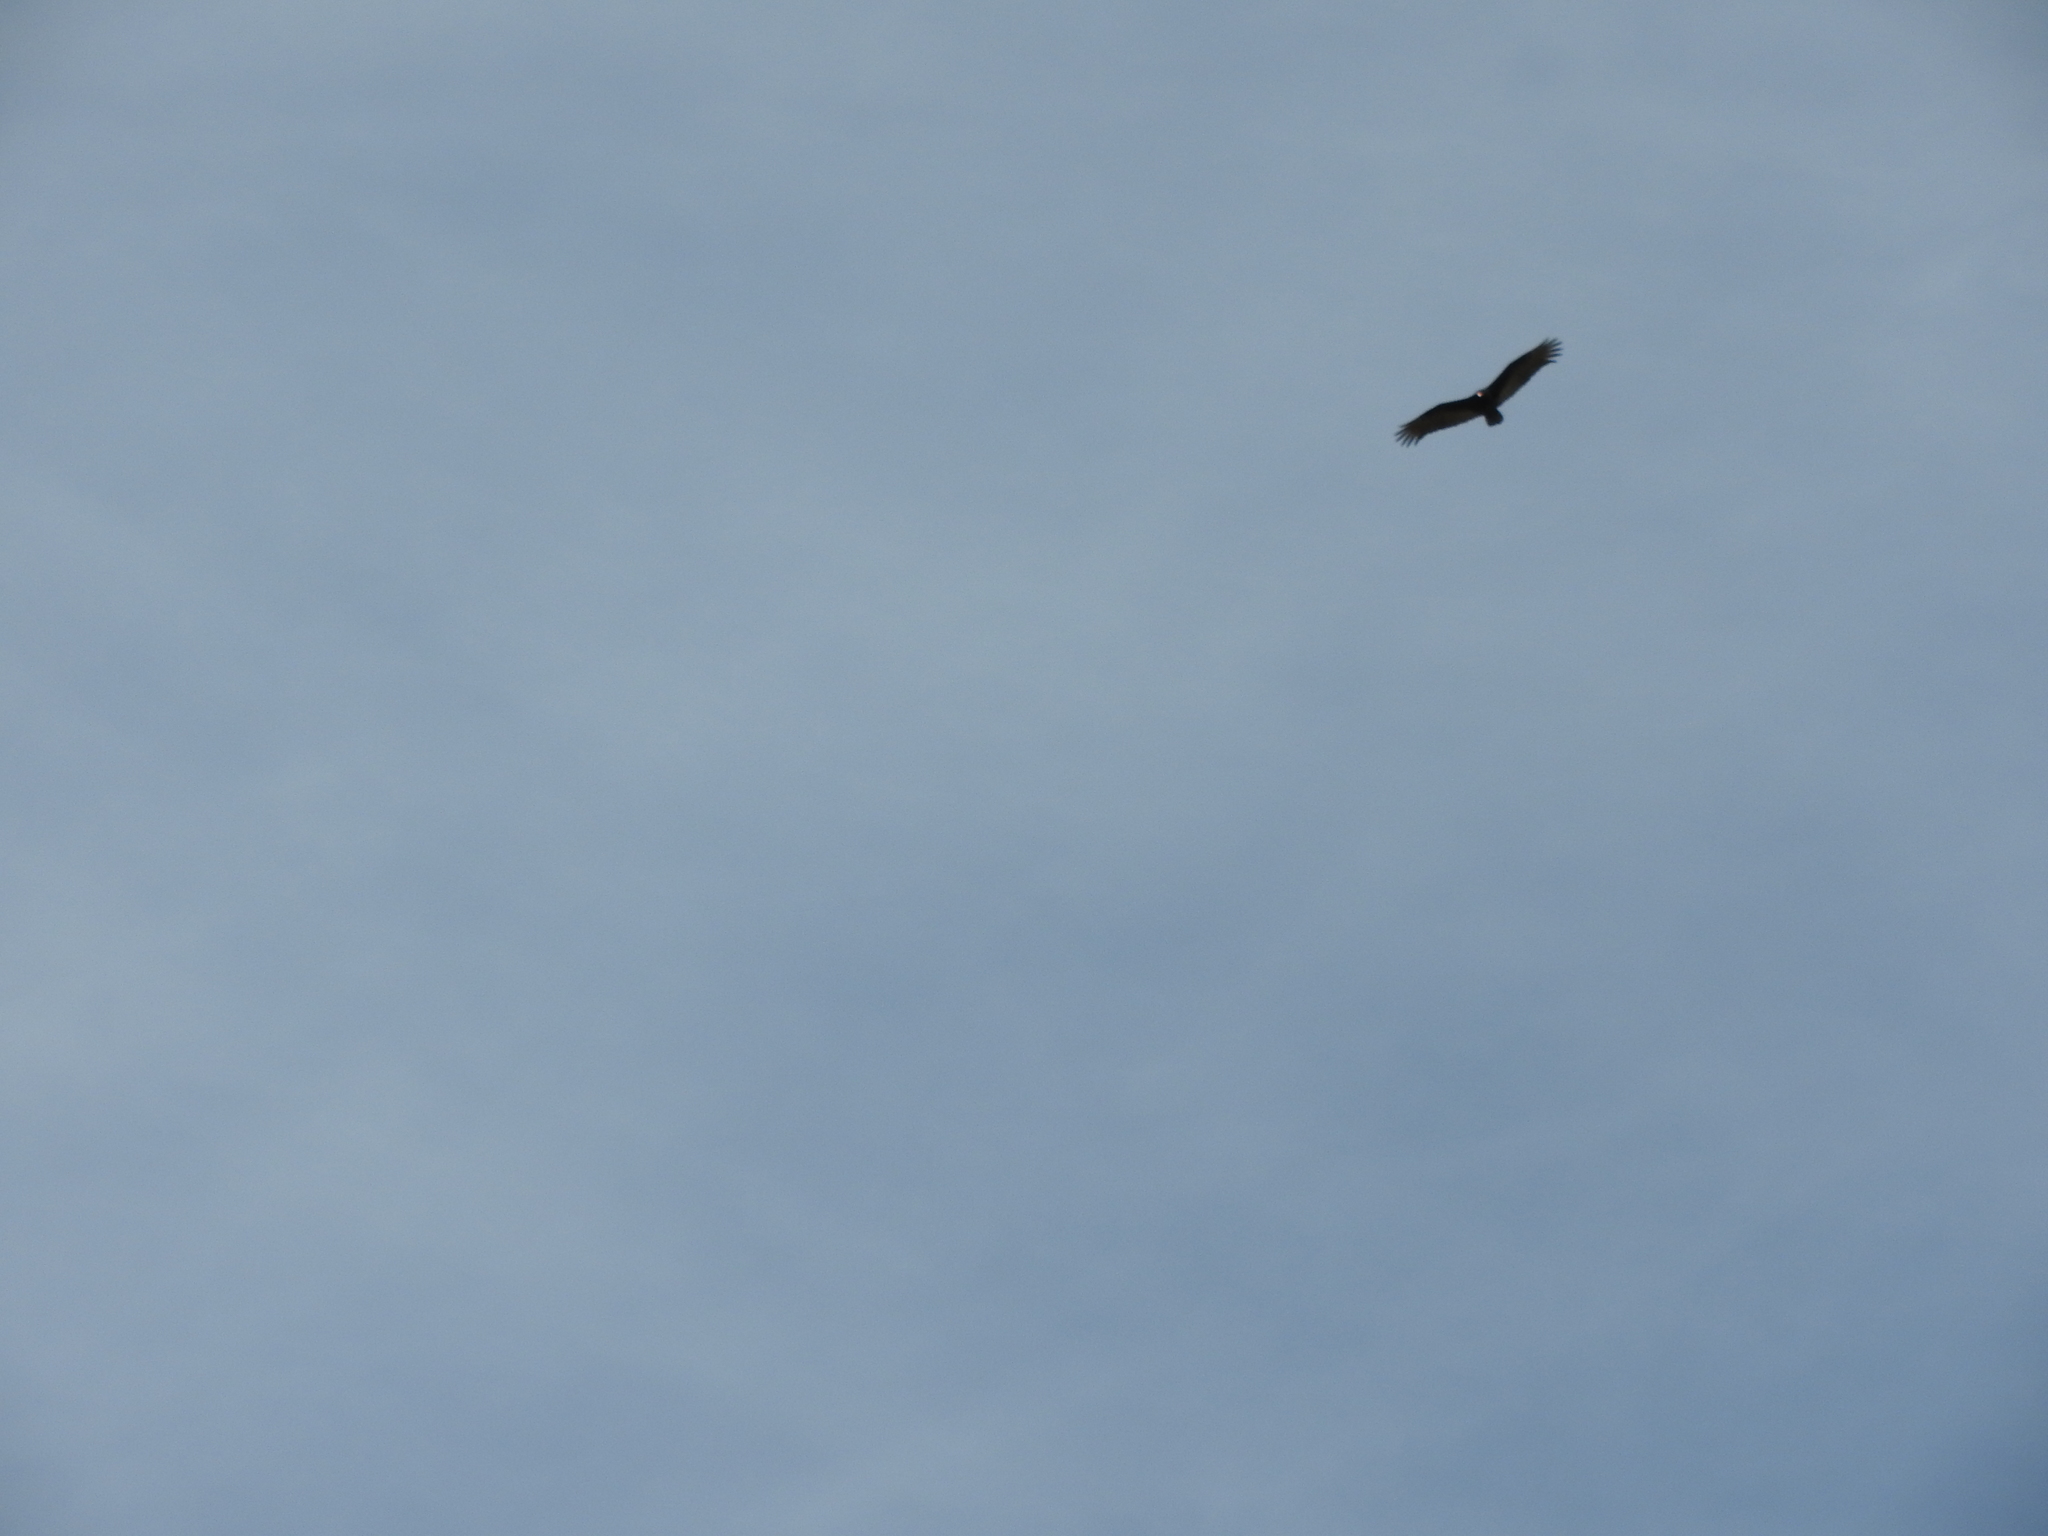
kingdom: Animalia
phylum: Chordata
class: Aves
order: Accipitriformes
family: Cathartidae
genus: Cathartes
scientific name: Cathartes aura
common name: Turkey vulture
